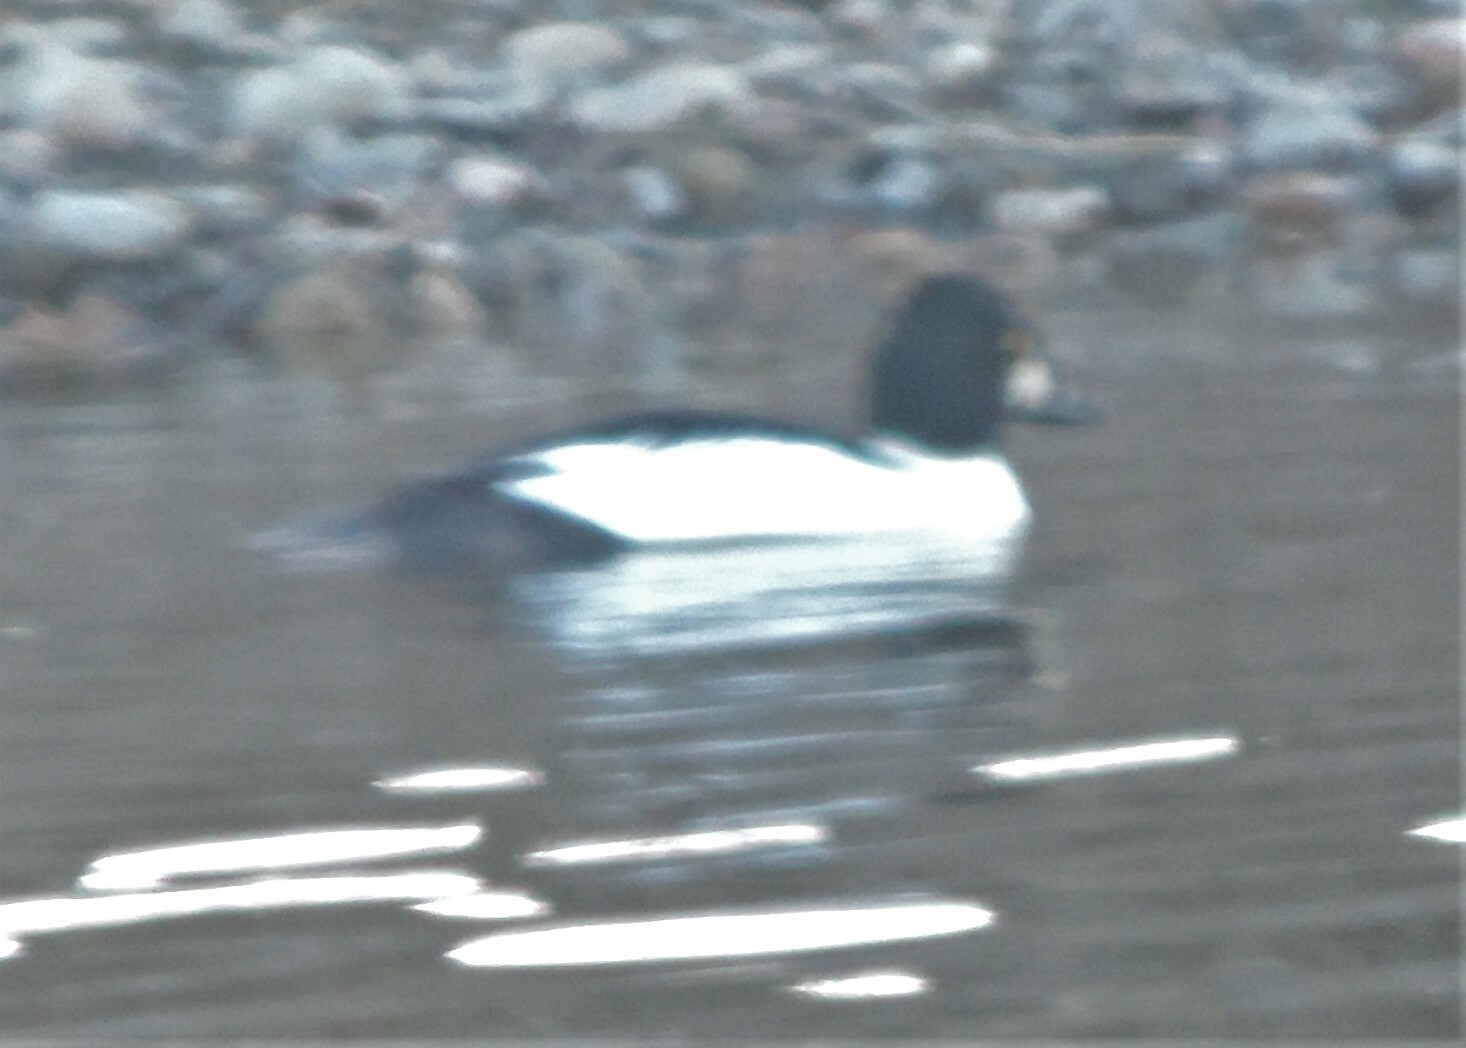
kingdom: Animalia
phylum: Chordata
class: Aves
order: Anseriformes
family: Anatidae
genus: Bucephala
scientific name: Bucephala clangula
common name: Common goldeneye
